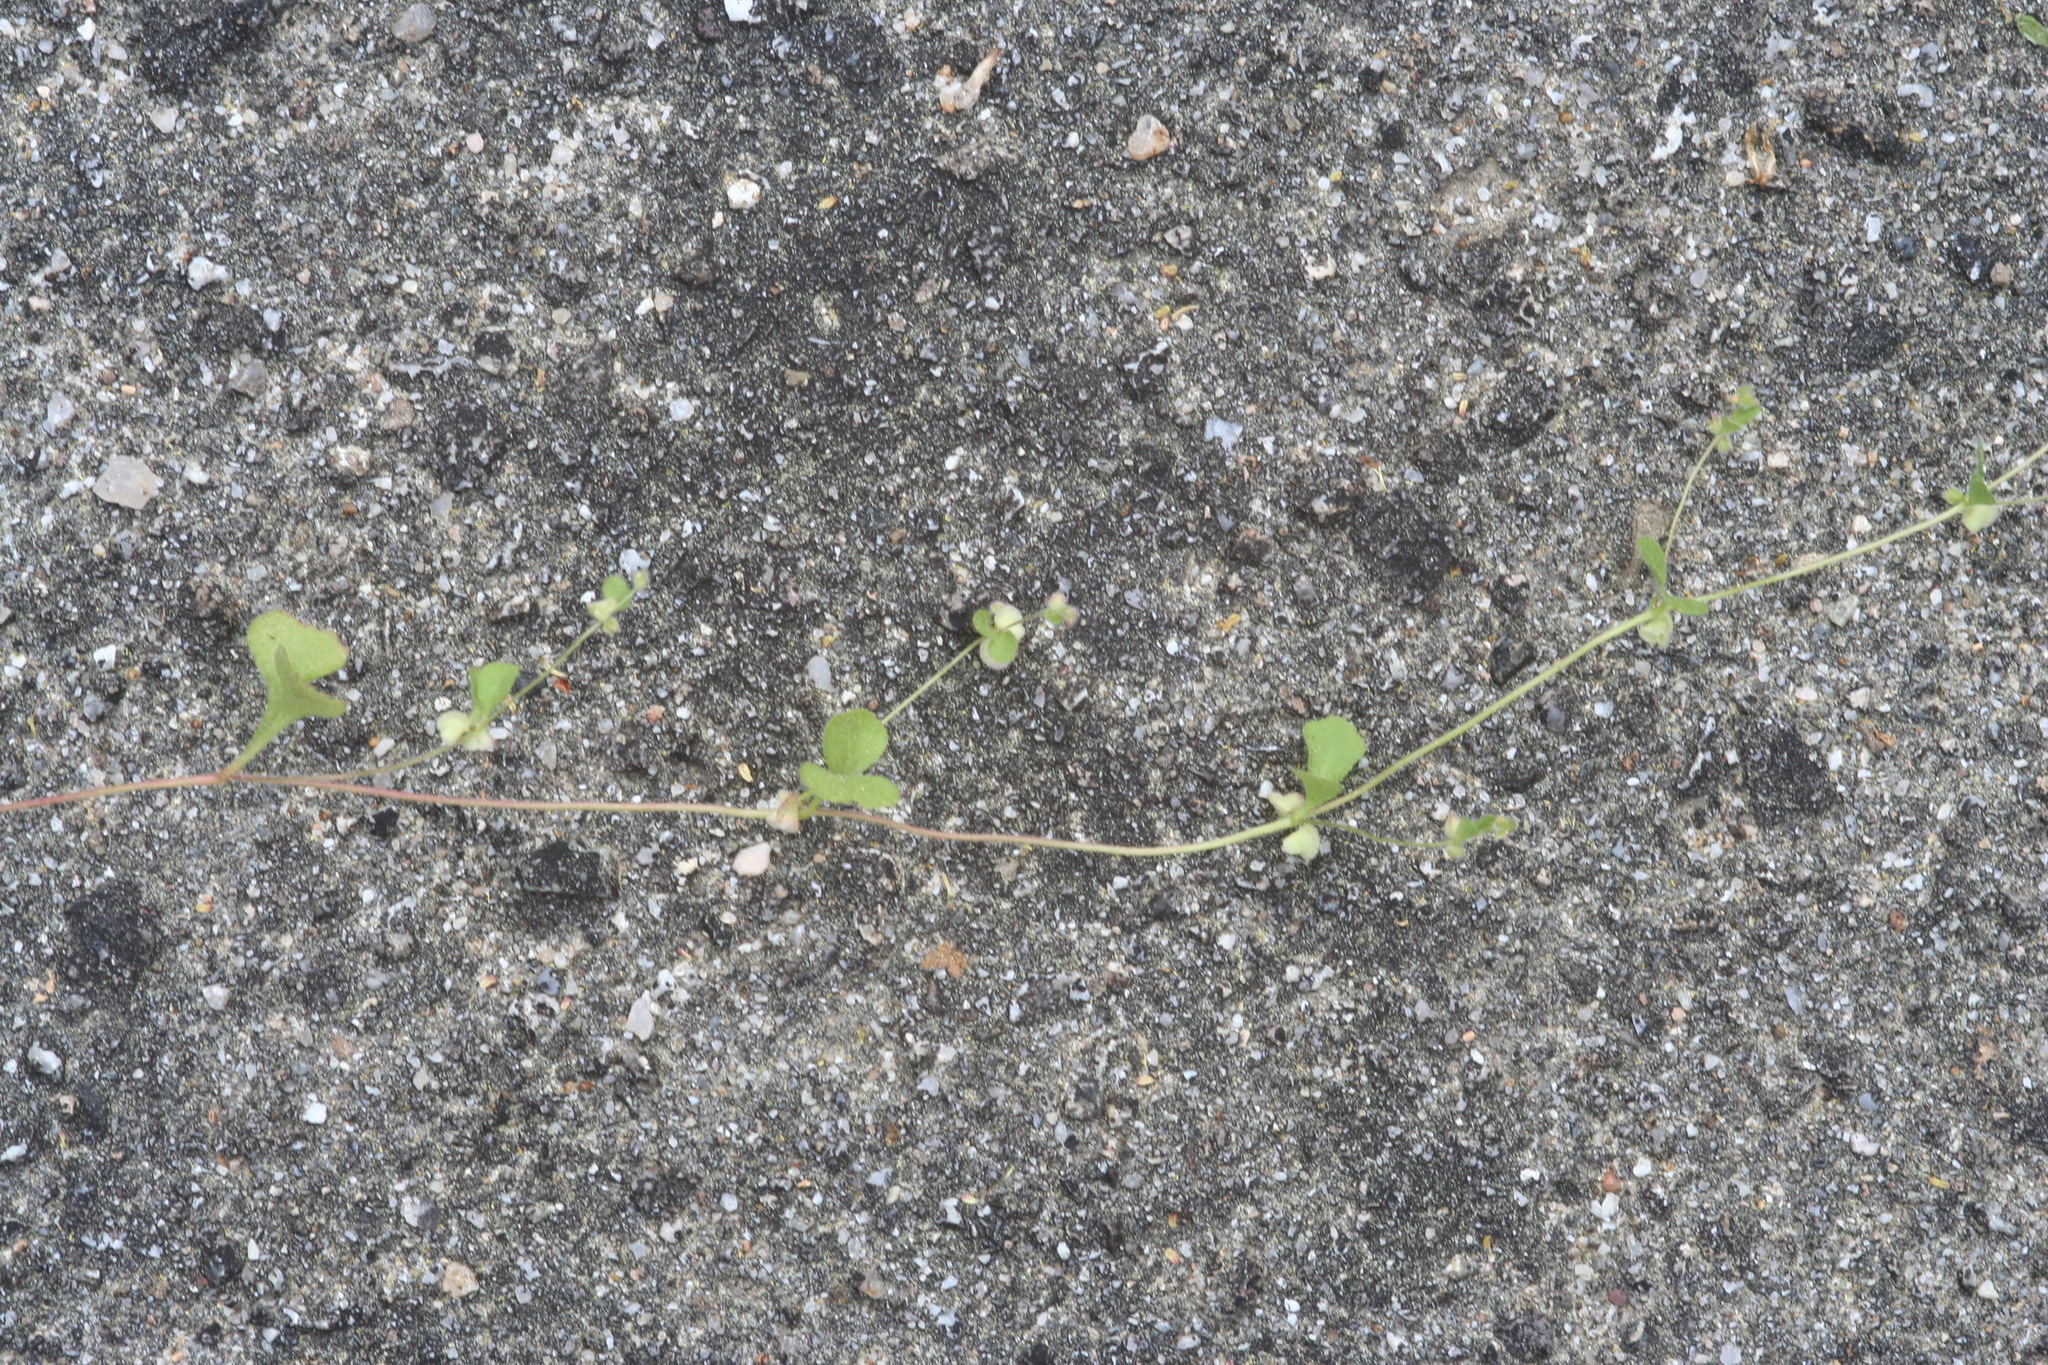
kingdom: Plantae
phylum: Tracheophyta
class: Magnoliopsida
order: Caryophyllales
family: Polygonaceae
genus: Pterostegia
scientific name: Pterostegia drymarioides
